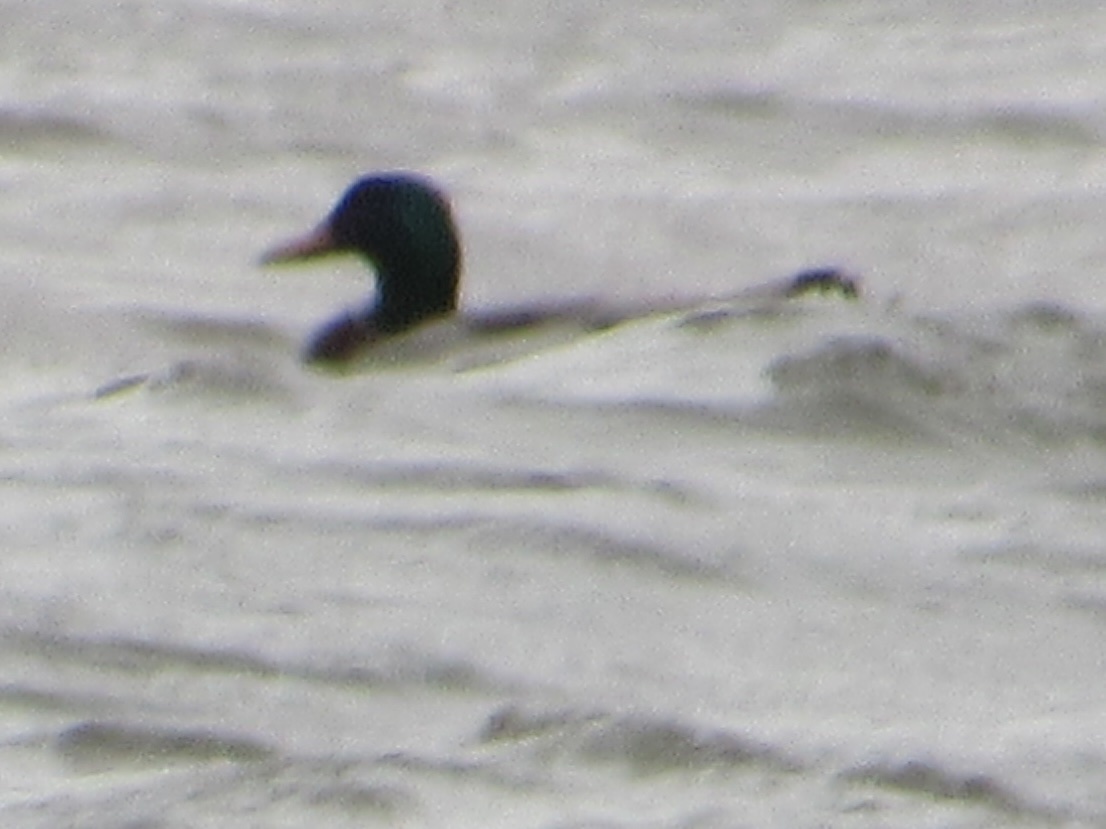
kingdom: Animalia
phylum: Chordata
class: Aves
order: Anseriformes
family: Anatidae
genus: Anas
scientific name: Anas platyrhynchos
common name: Mallard
